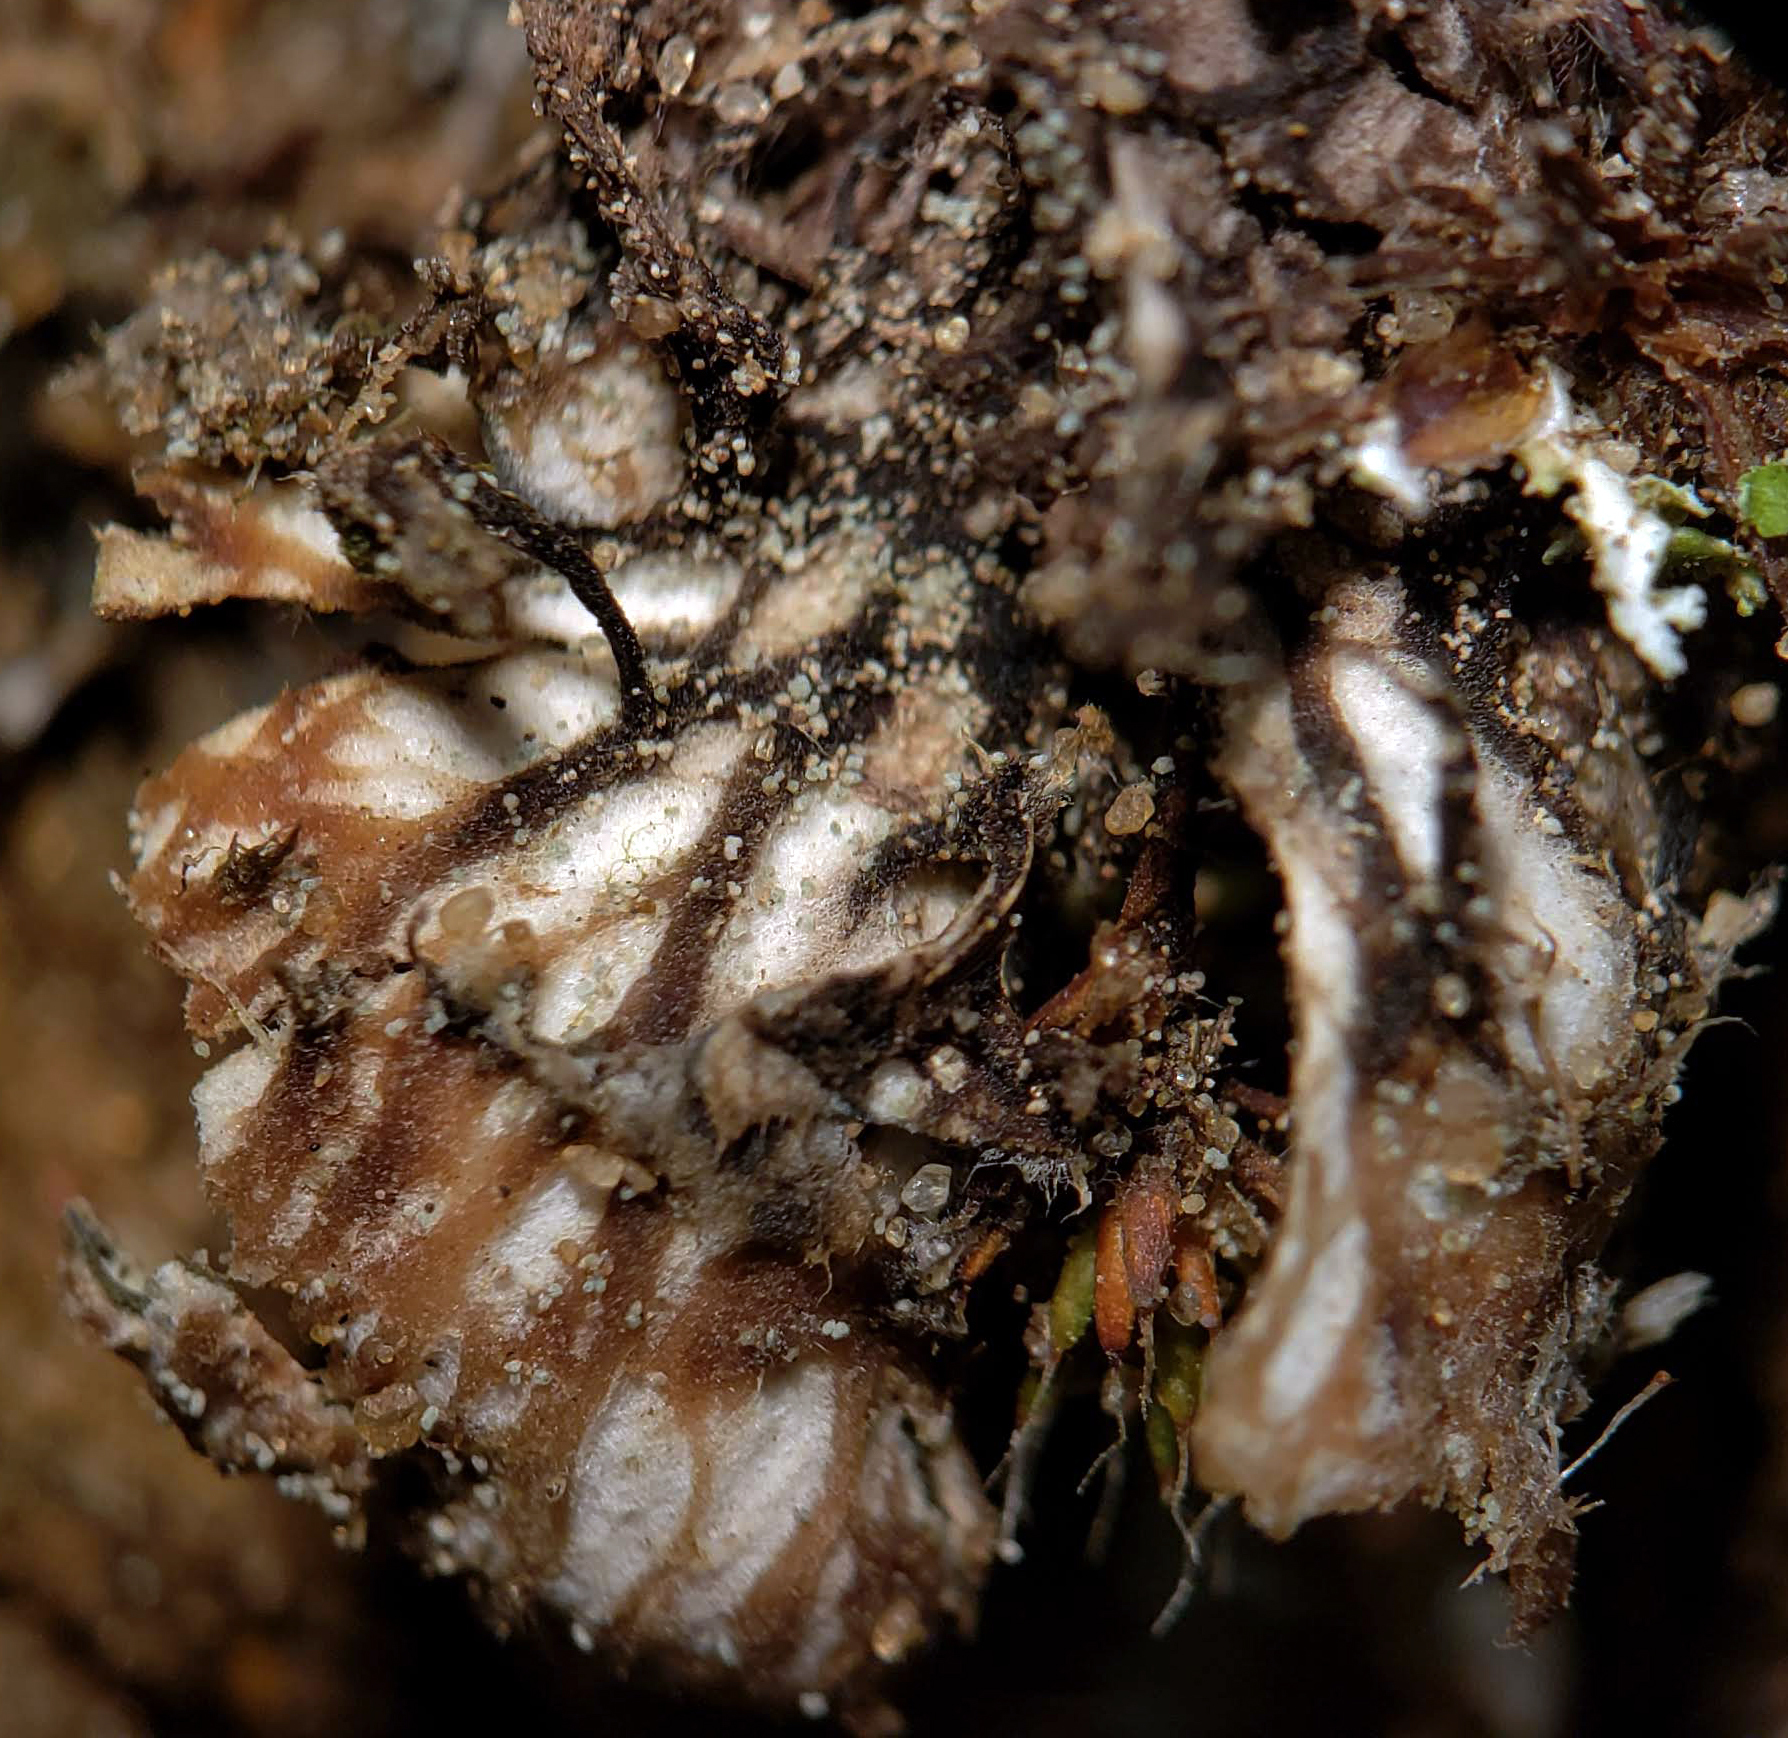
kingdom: Fungi
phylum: Ascomycota
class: Lecanoromycetes
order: Peltigerales
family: Peltigeraceae
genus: Peltigera
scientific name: Peltigera didactyla
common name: Alternating dog lichen
